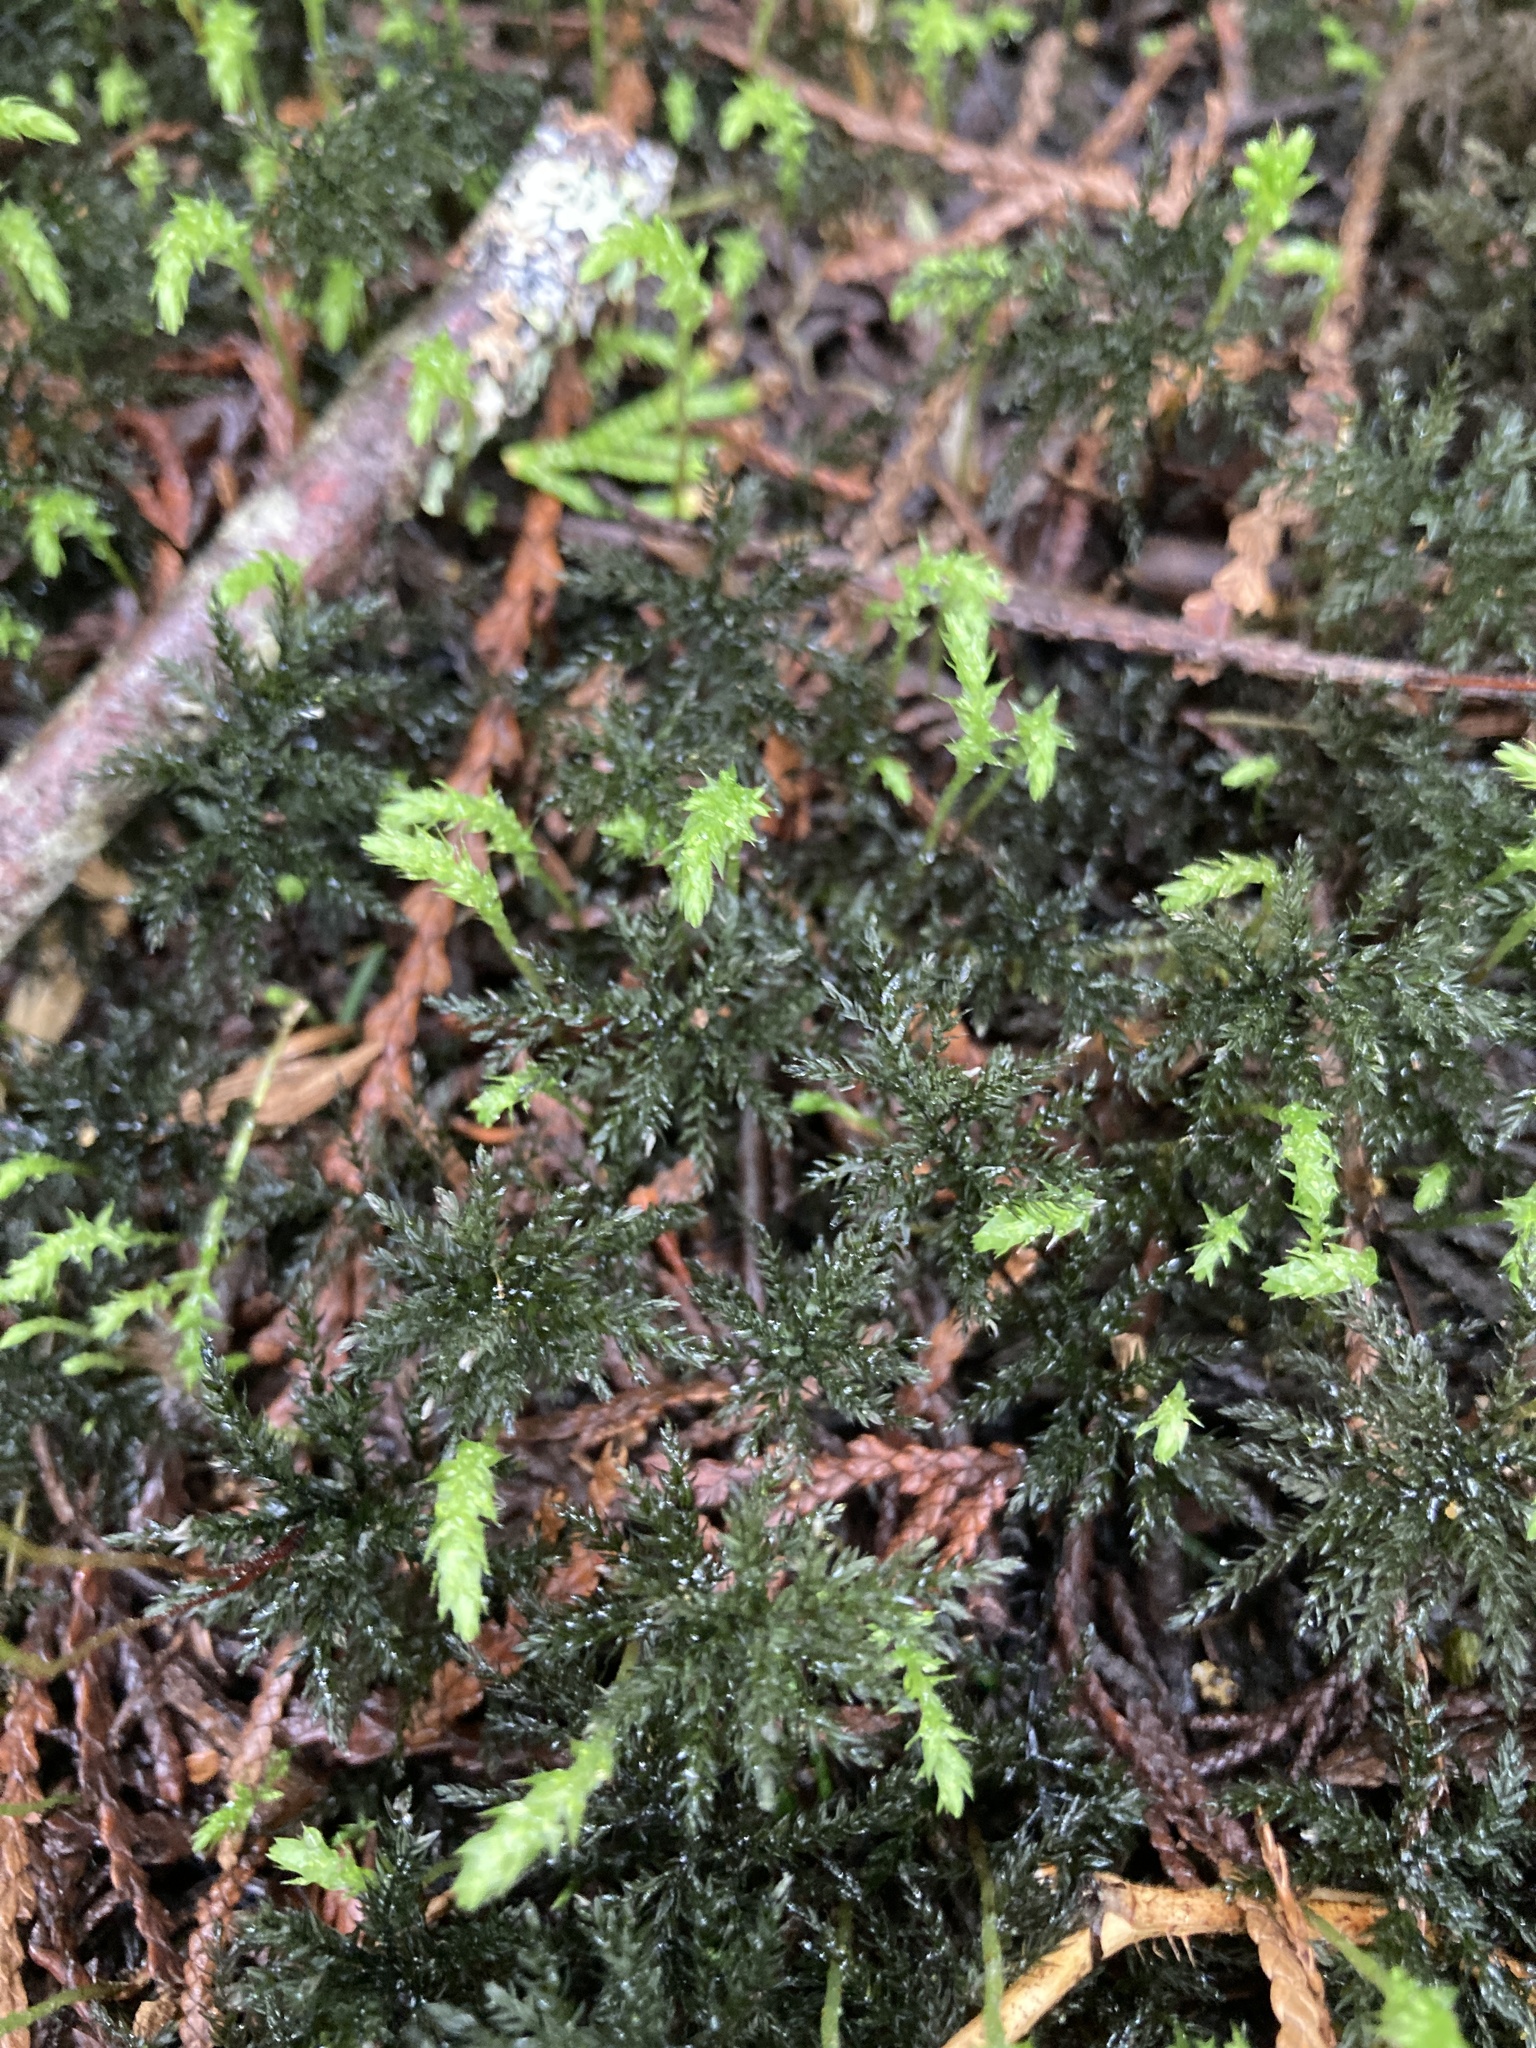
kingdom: Plantae
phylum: Bryophyta
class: Bryopsida
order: Bryales
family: Mniaceae
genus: Leucolepis
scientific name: Leucolepis acanthoneura
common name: Leucolepis umbrella moss
